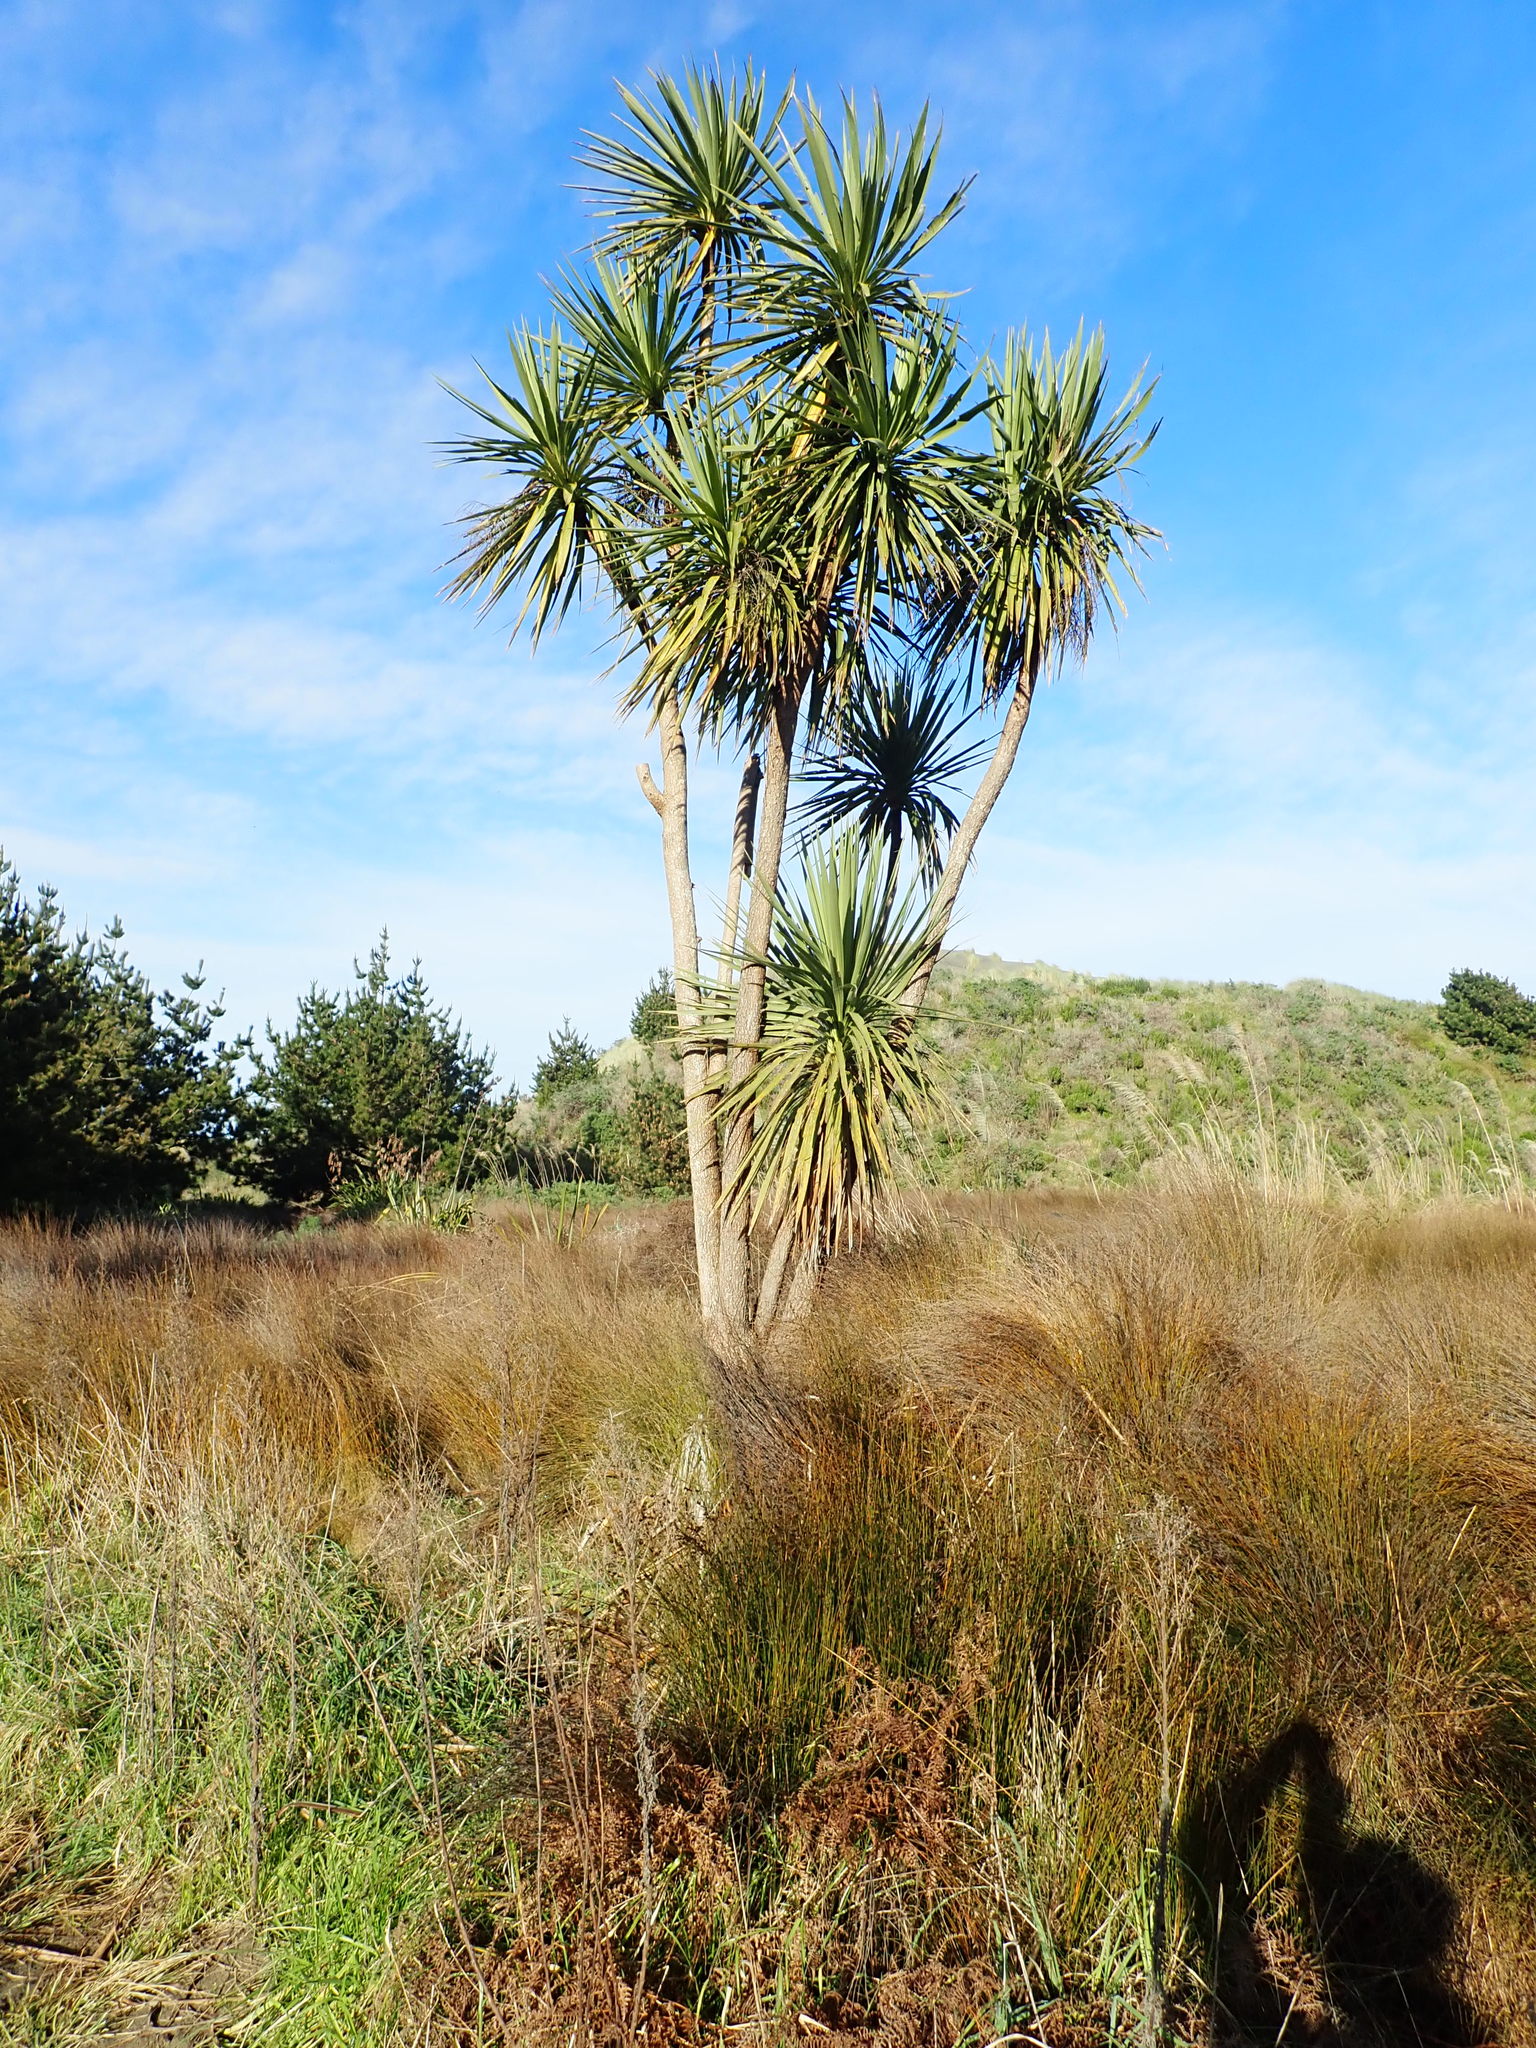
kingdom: Plantae
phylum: Tracheophyta
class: Liliopsida
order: Asparagales
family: Asparagaceae
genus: Cordyline
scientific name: Cordyline australis
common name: Cabbage-palm
